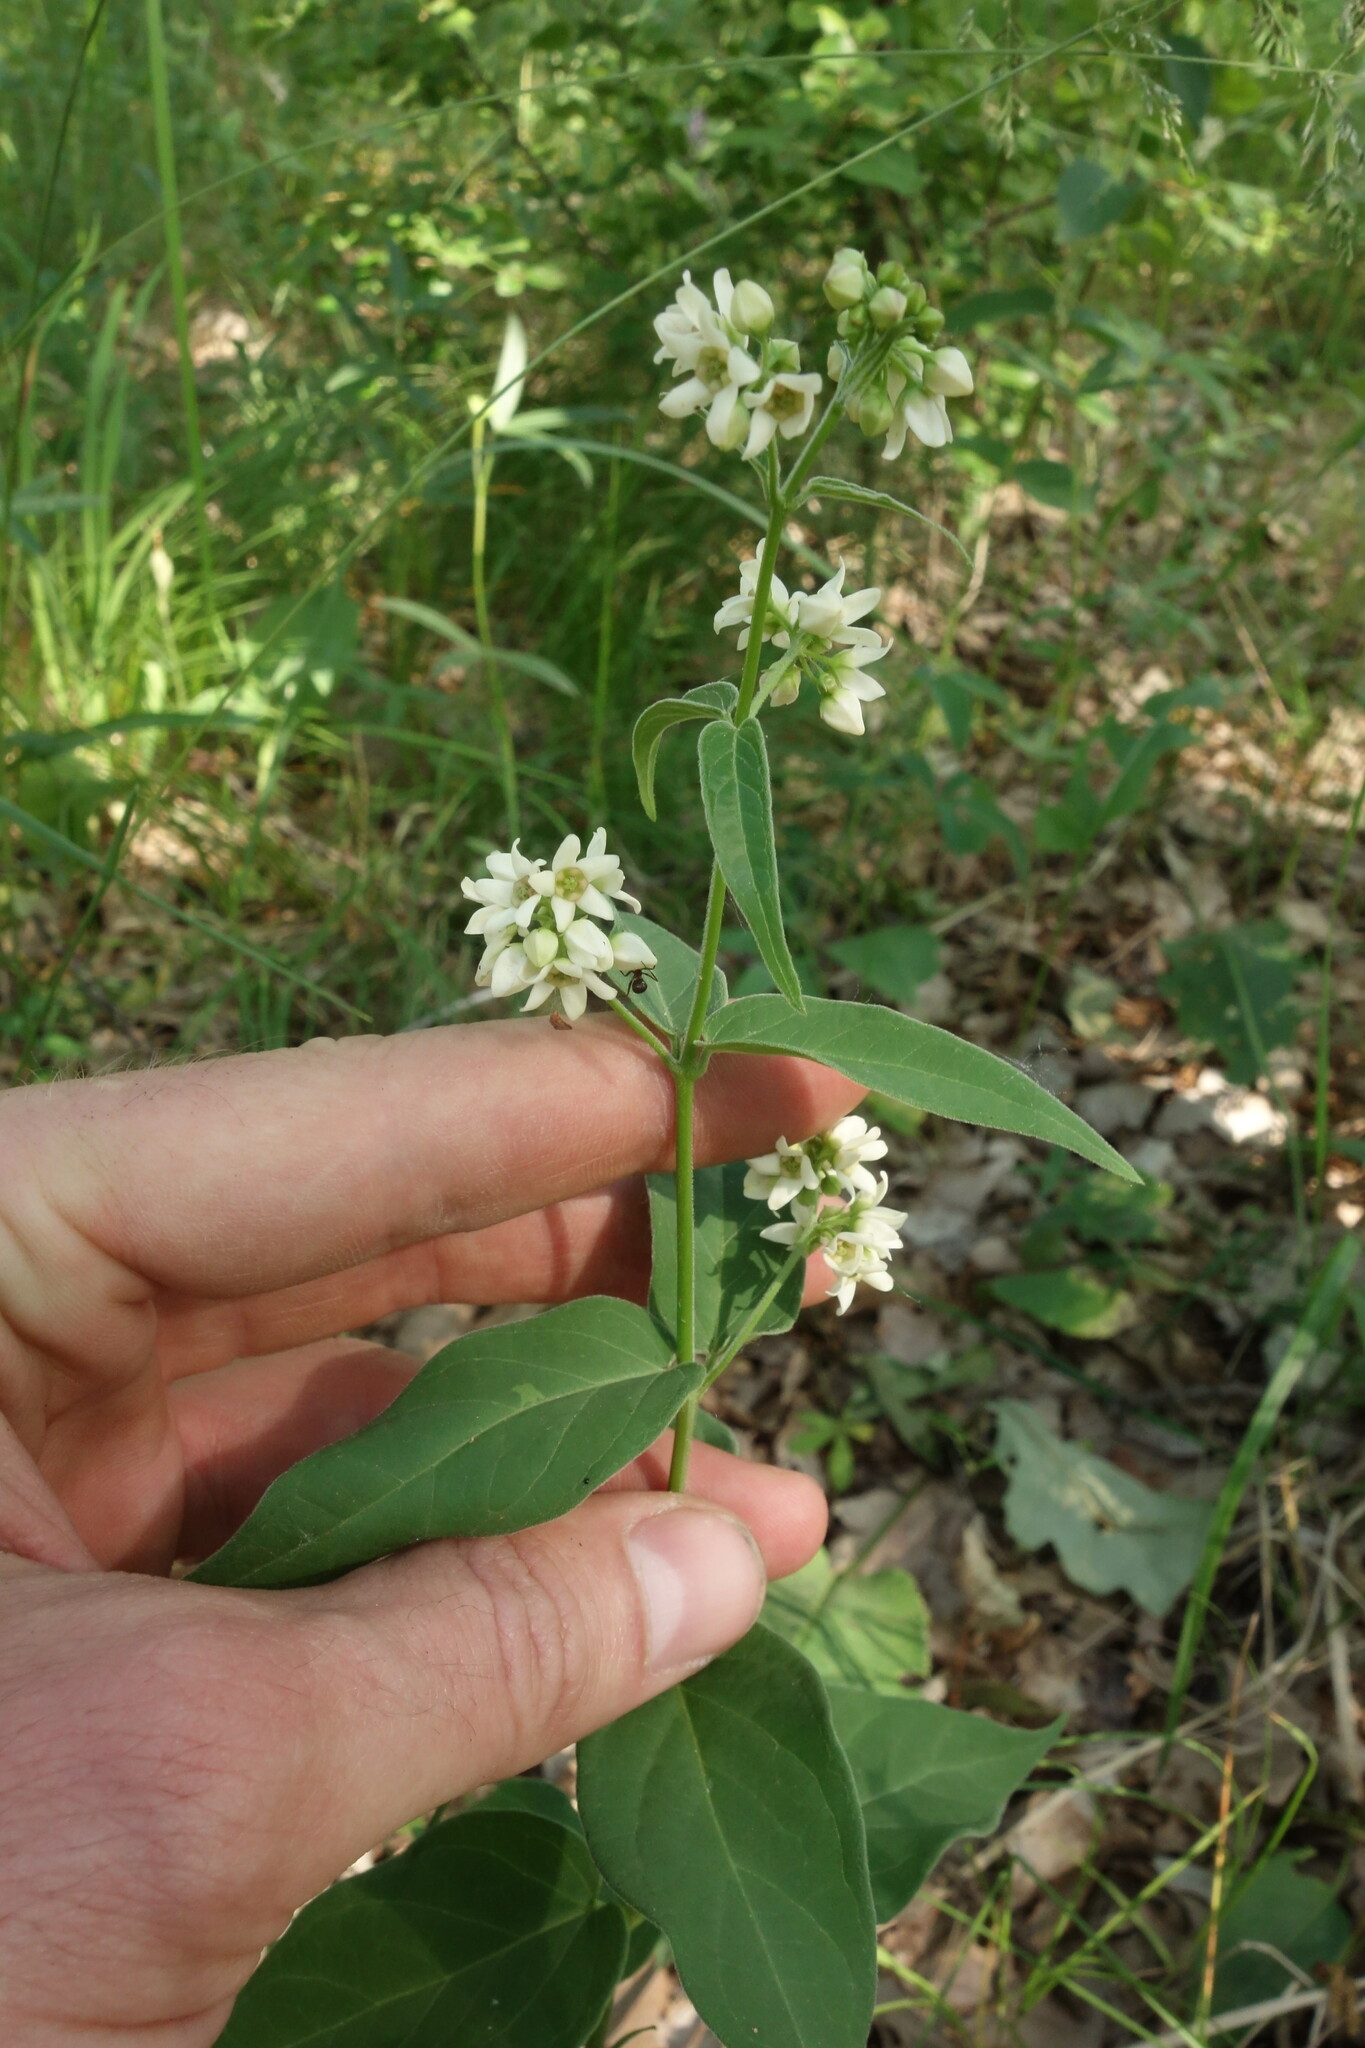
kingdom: Plantae
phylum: Tracheophyta
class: Magnoliopsida
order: Gentianales
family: Apocynaceae
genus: Vincetoxicum
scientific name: Vincetoxicum hirundinaria
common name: White swallowwort
